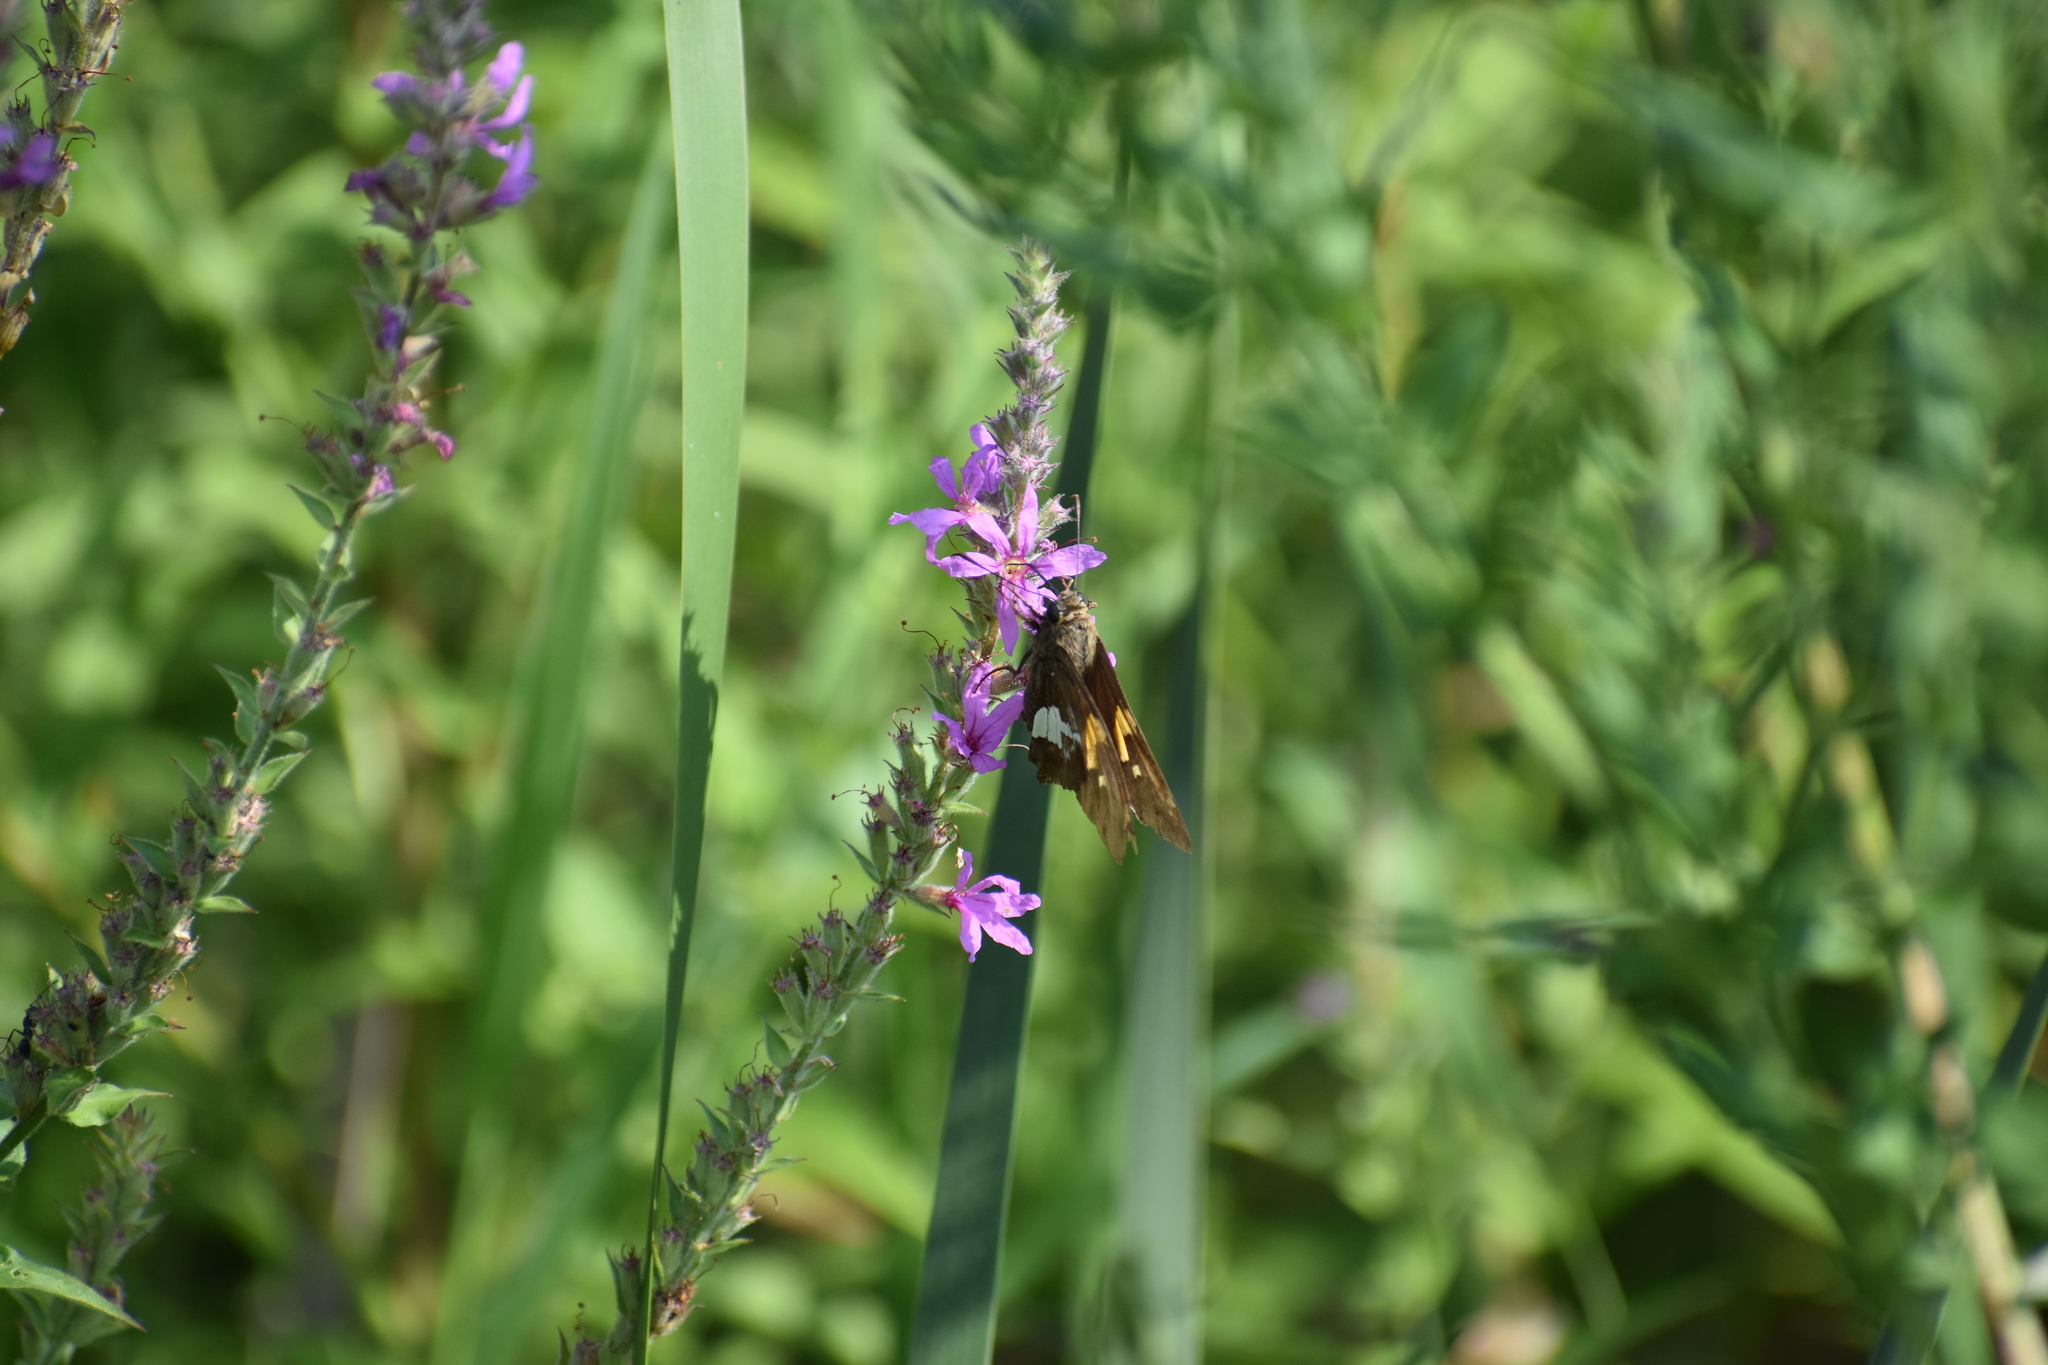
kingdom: Animalia
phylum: Arthropoda
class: Insecta
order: Lepidoptera
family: Hesperiidae
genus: Epargyreus
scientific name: Epargyreus clarus
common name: Silver-spotted skipper
